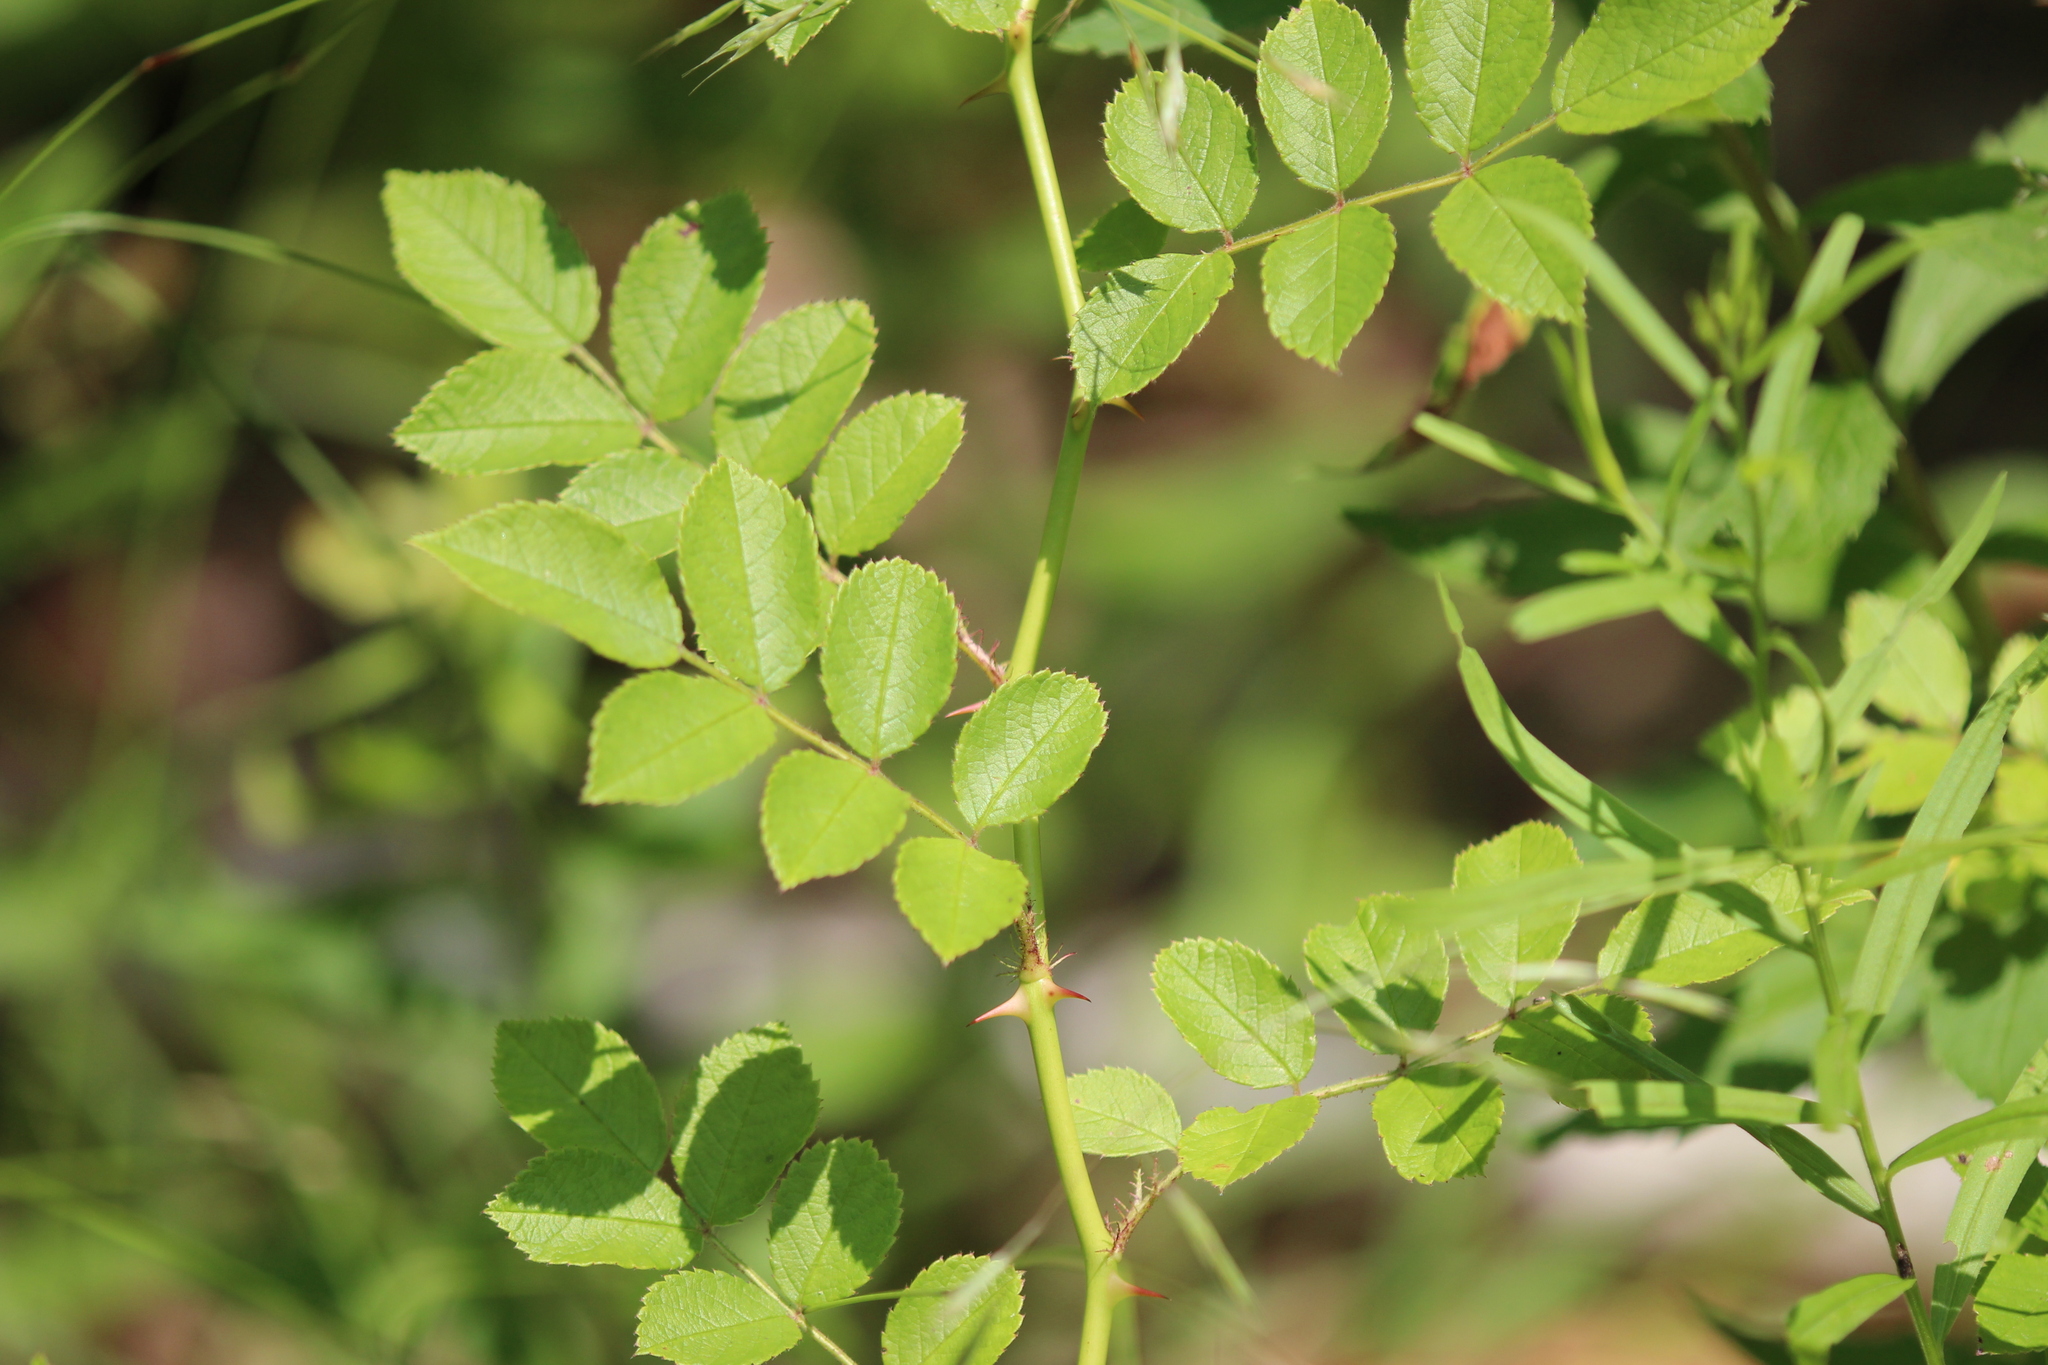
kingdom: Plantae
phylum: Tracheophyta
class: Magnoliopsida
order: Rosales
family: Rosaceae
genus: Rosa
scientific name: Rosa multiflora
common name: Multiflora rose
